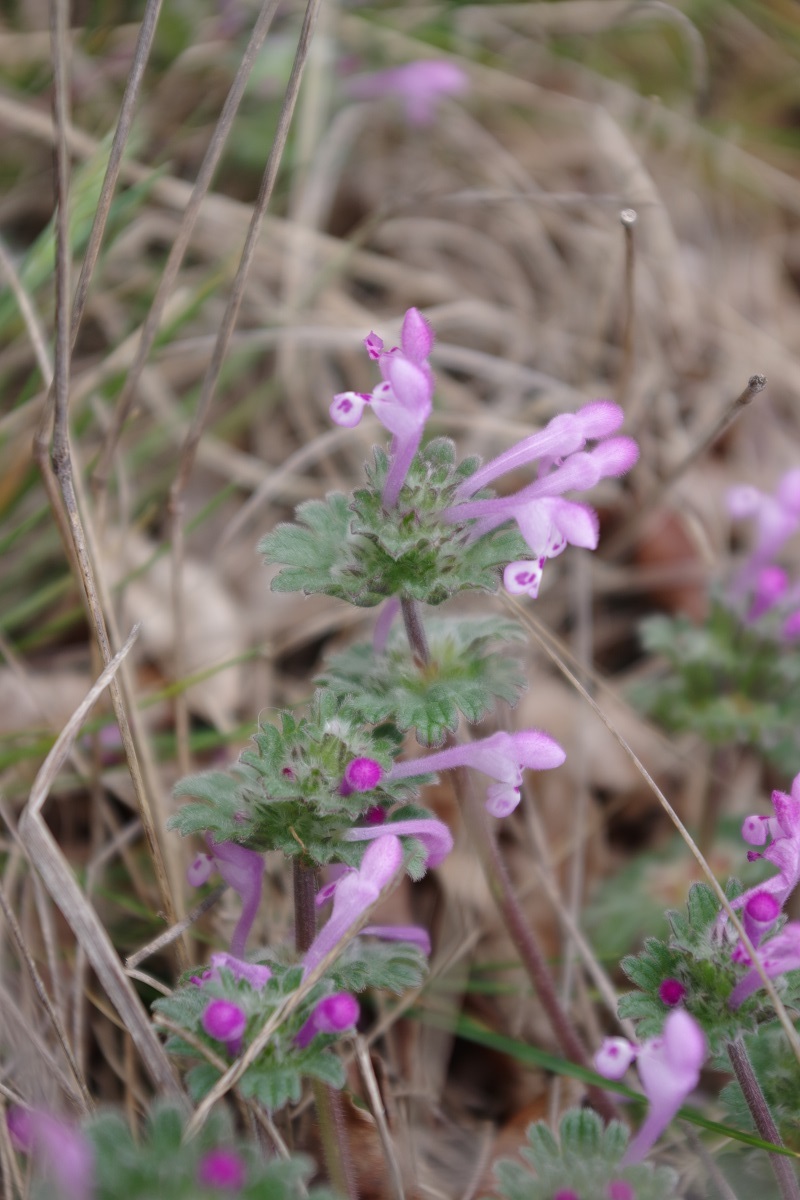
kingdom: Plantae
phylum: Tracheophyta
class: Magnoliopsida
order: Lamiales
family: Lamiaceae
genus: Lamium
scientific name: Lamium amplexicaule
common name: Henbit dead-nettle
